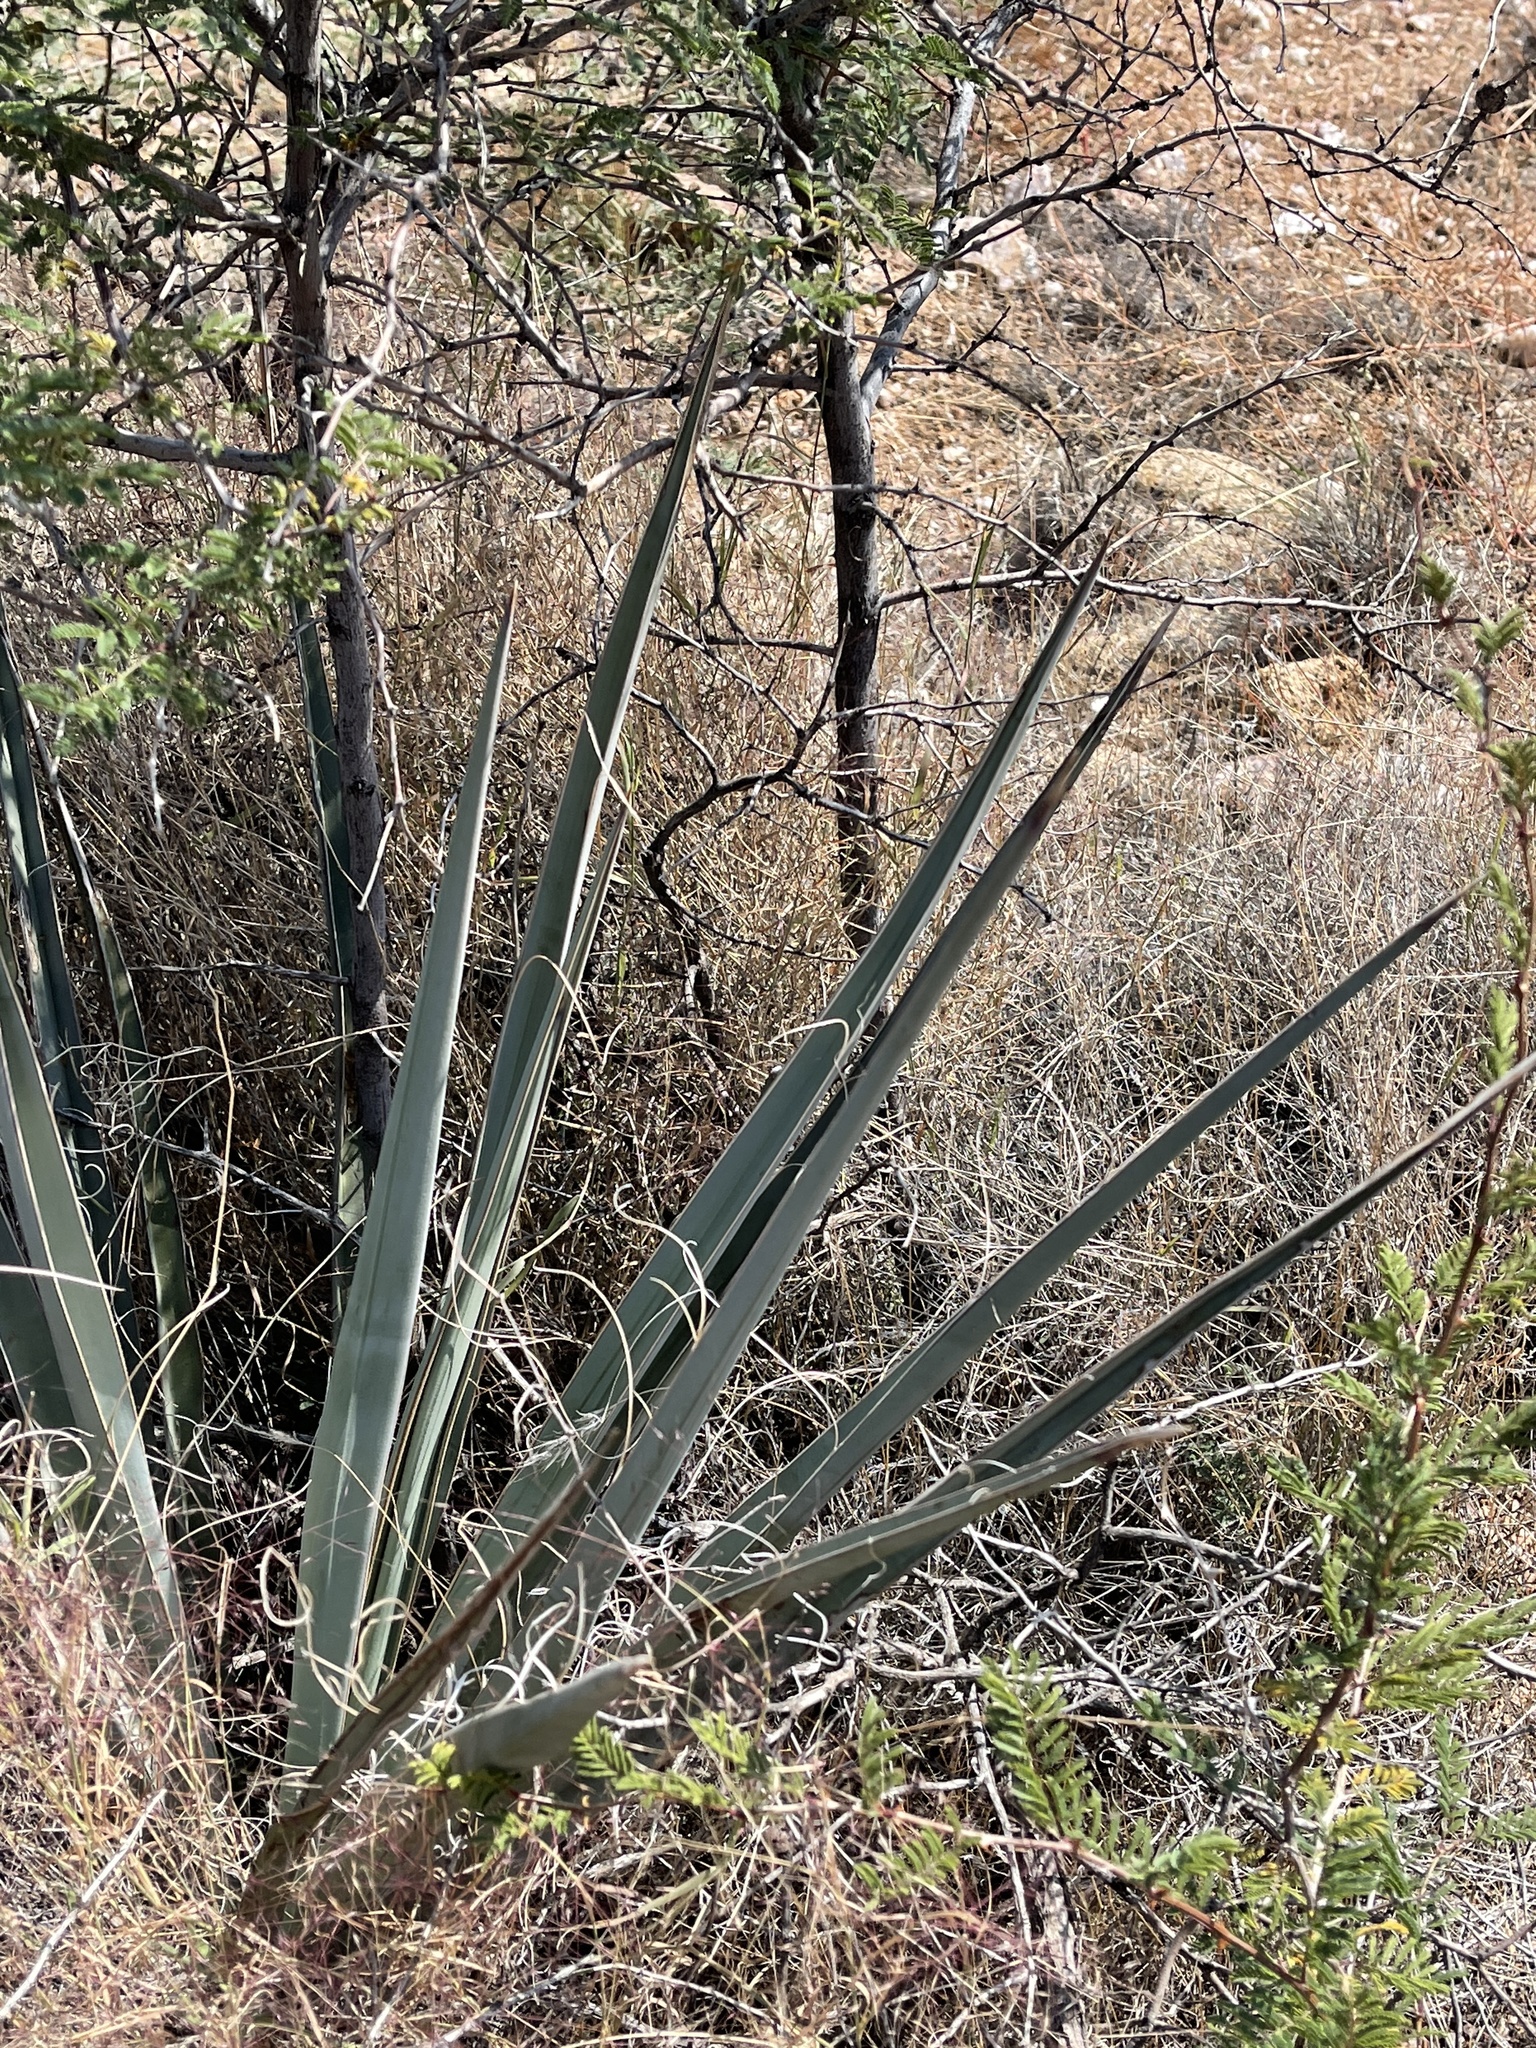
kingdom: Plantae
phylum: Tracheophyta
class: Liliopsida
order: Asparagales
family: Asparagaceae
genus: Yucca
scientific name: Yucca baccata
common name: Banana yucca
